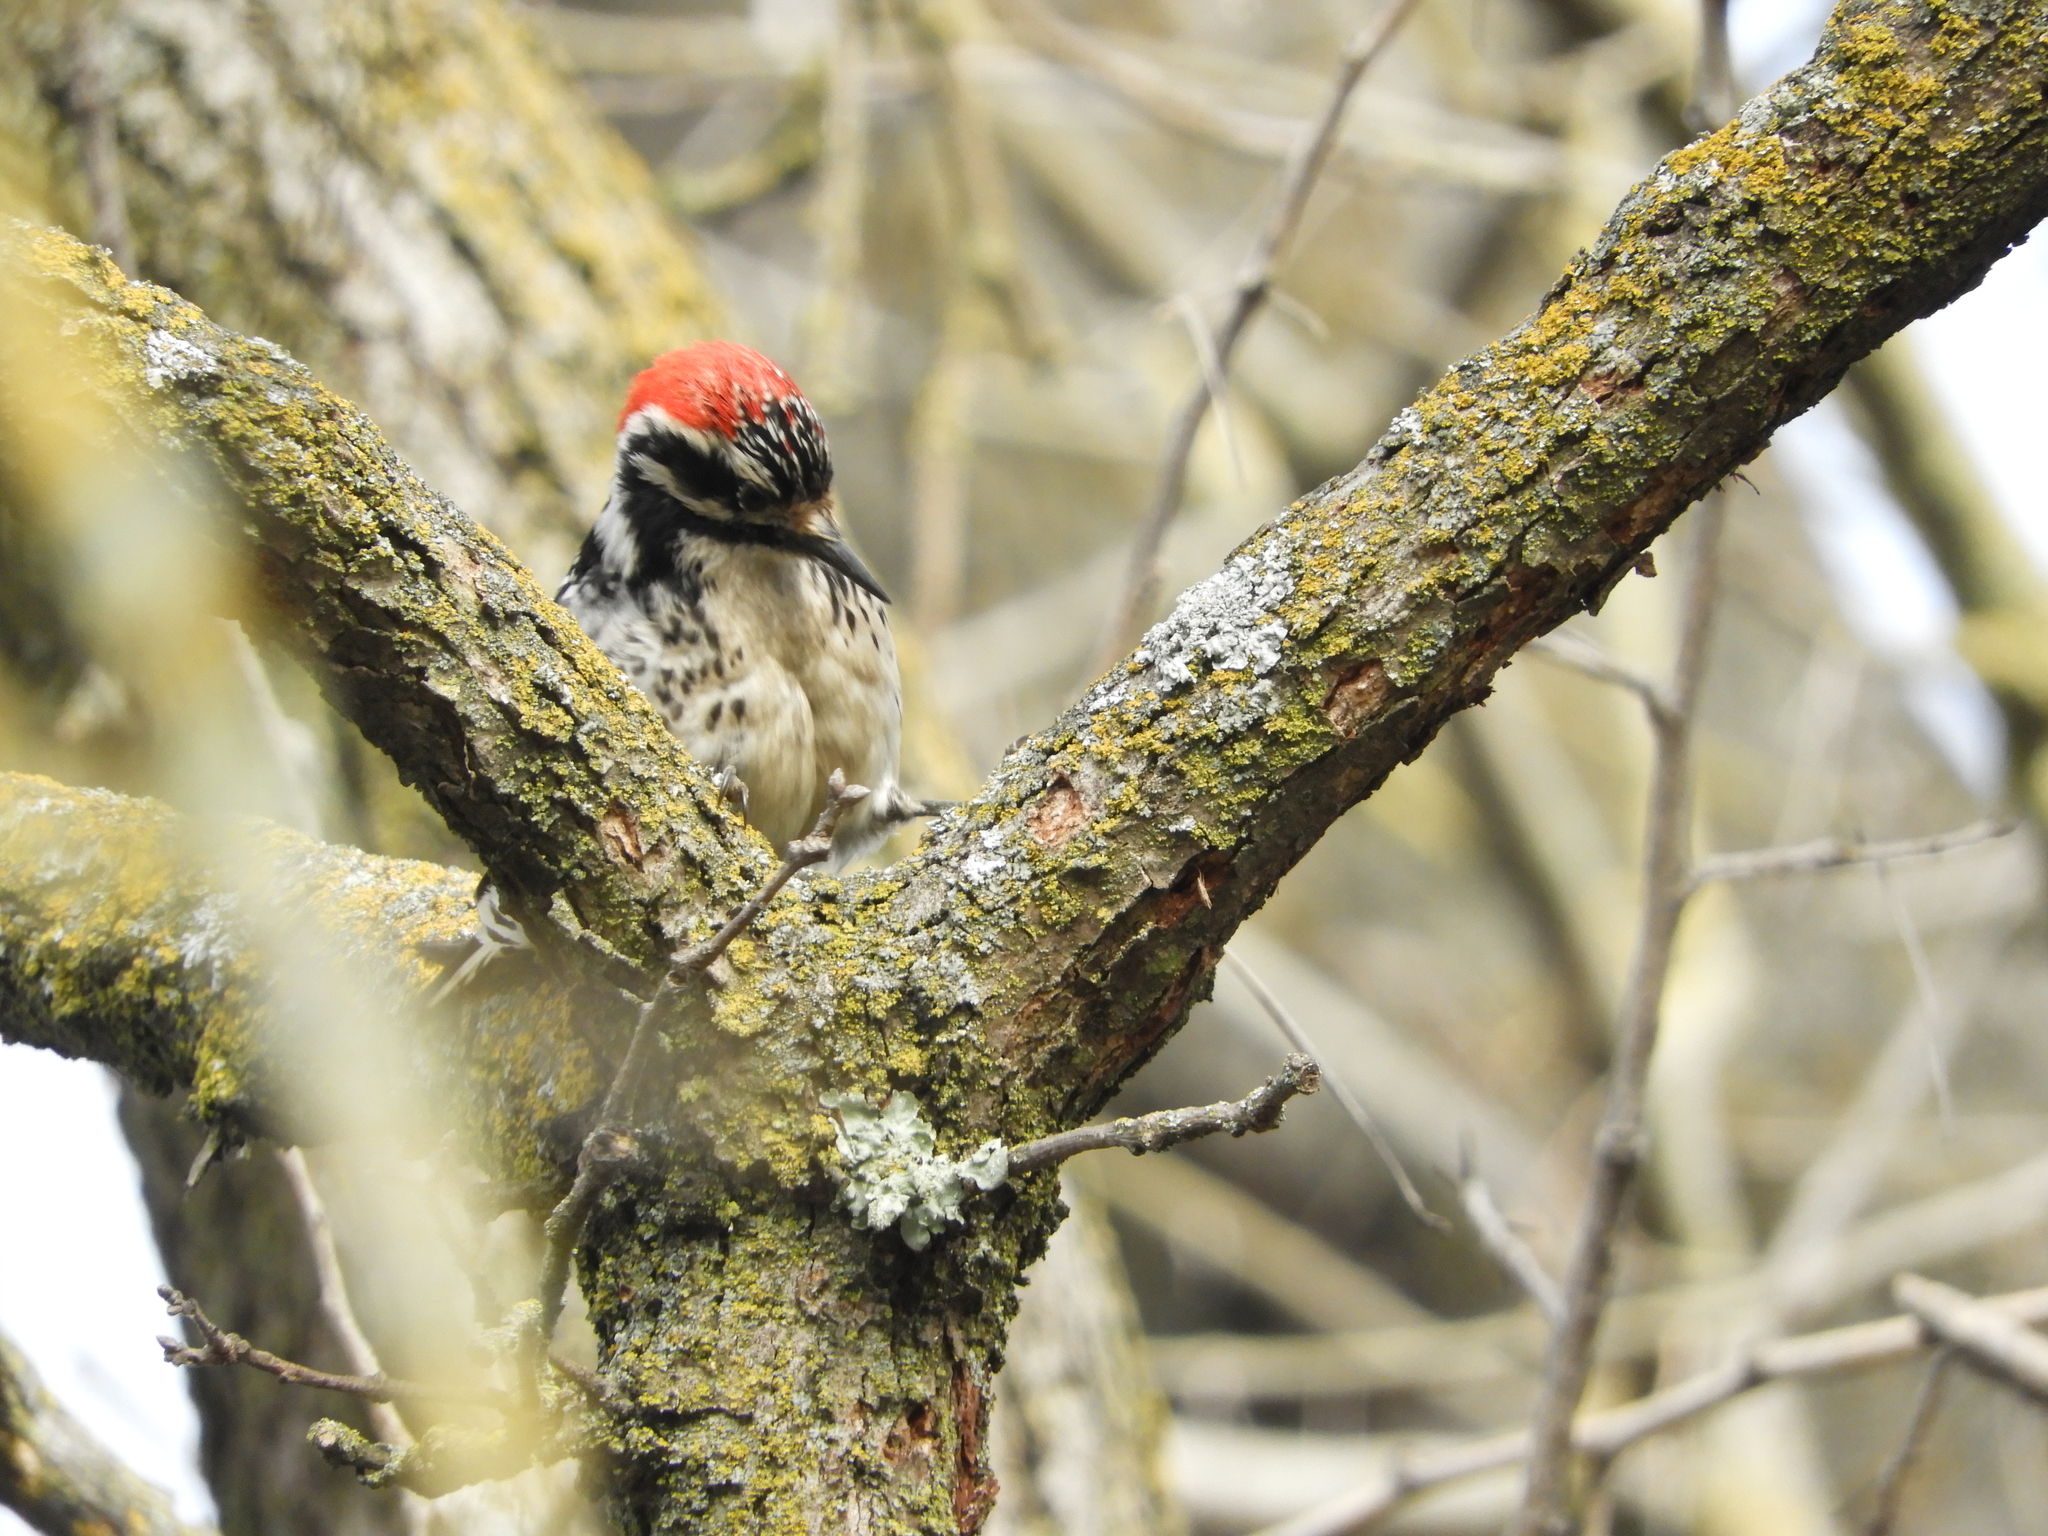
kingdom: Animalia
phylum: Chordata
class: Aves
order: Piciformes
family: Picidae
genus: Dryobates
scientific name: Dryobates nuttallii
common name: Nuttall's woodpecker
